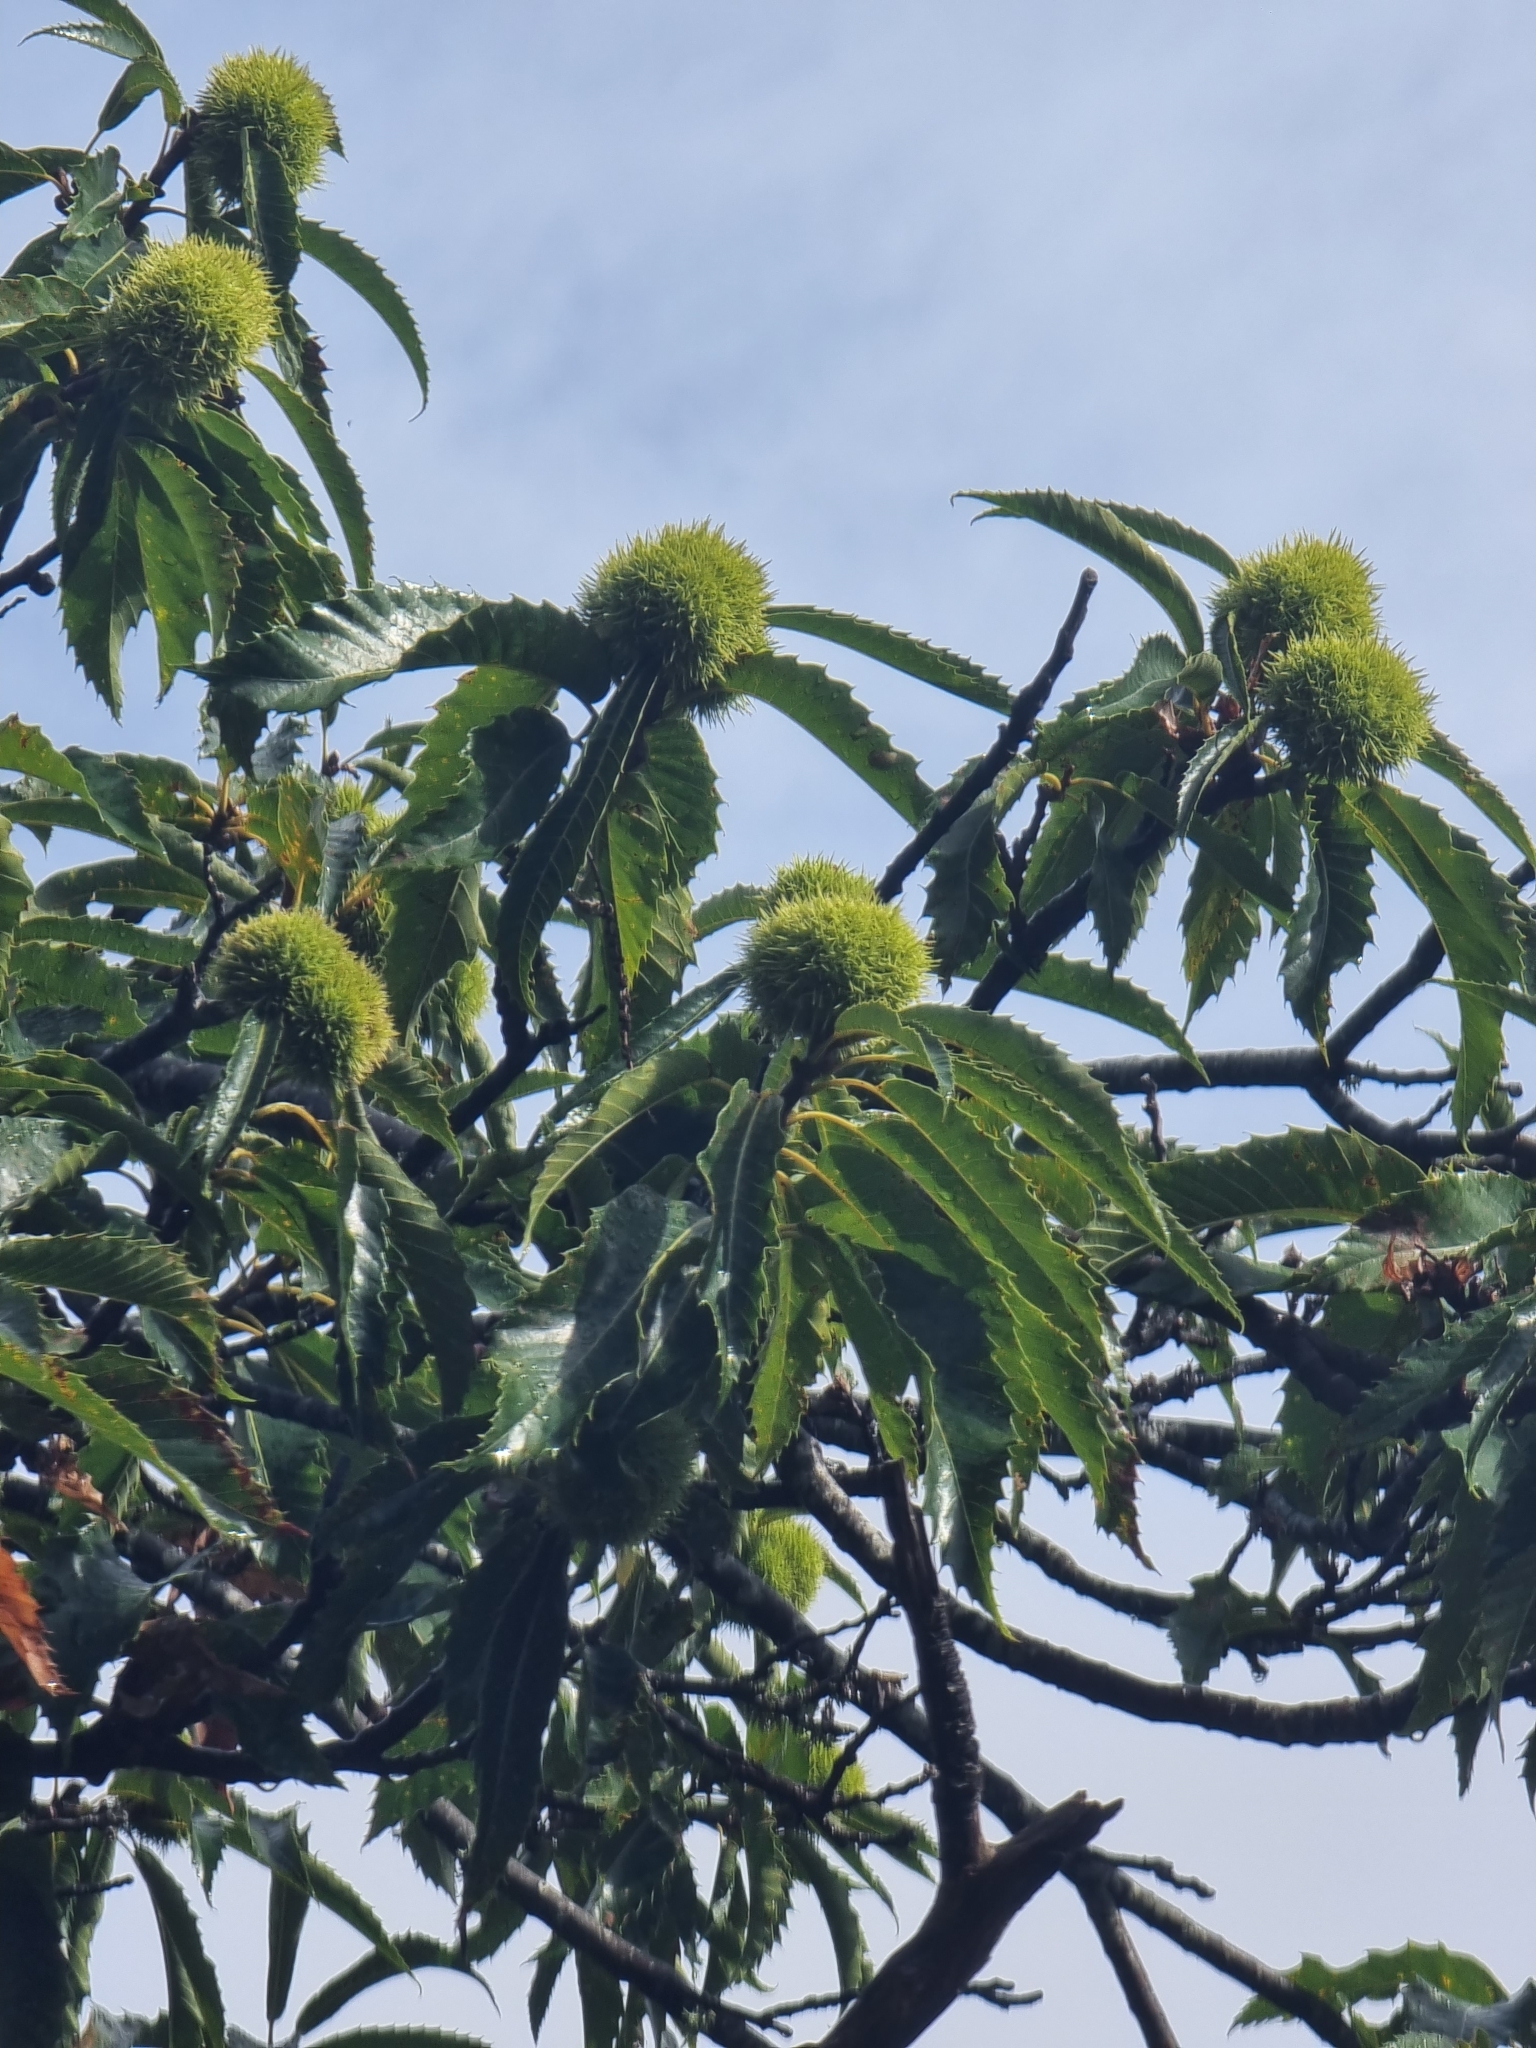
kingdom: Plantae
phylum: Tracheophyta
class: Magnoliopsida
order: Fagales
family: Fagaceae
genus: Castanea
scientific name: Castanea sativa
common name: Sweet chestnut
